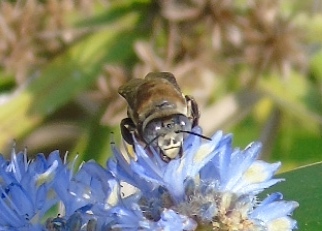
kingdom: Animalia
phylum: Arthropoda
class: Insecta
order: Hymenoptera
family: Apidae
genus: Centris
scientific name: Centris
